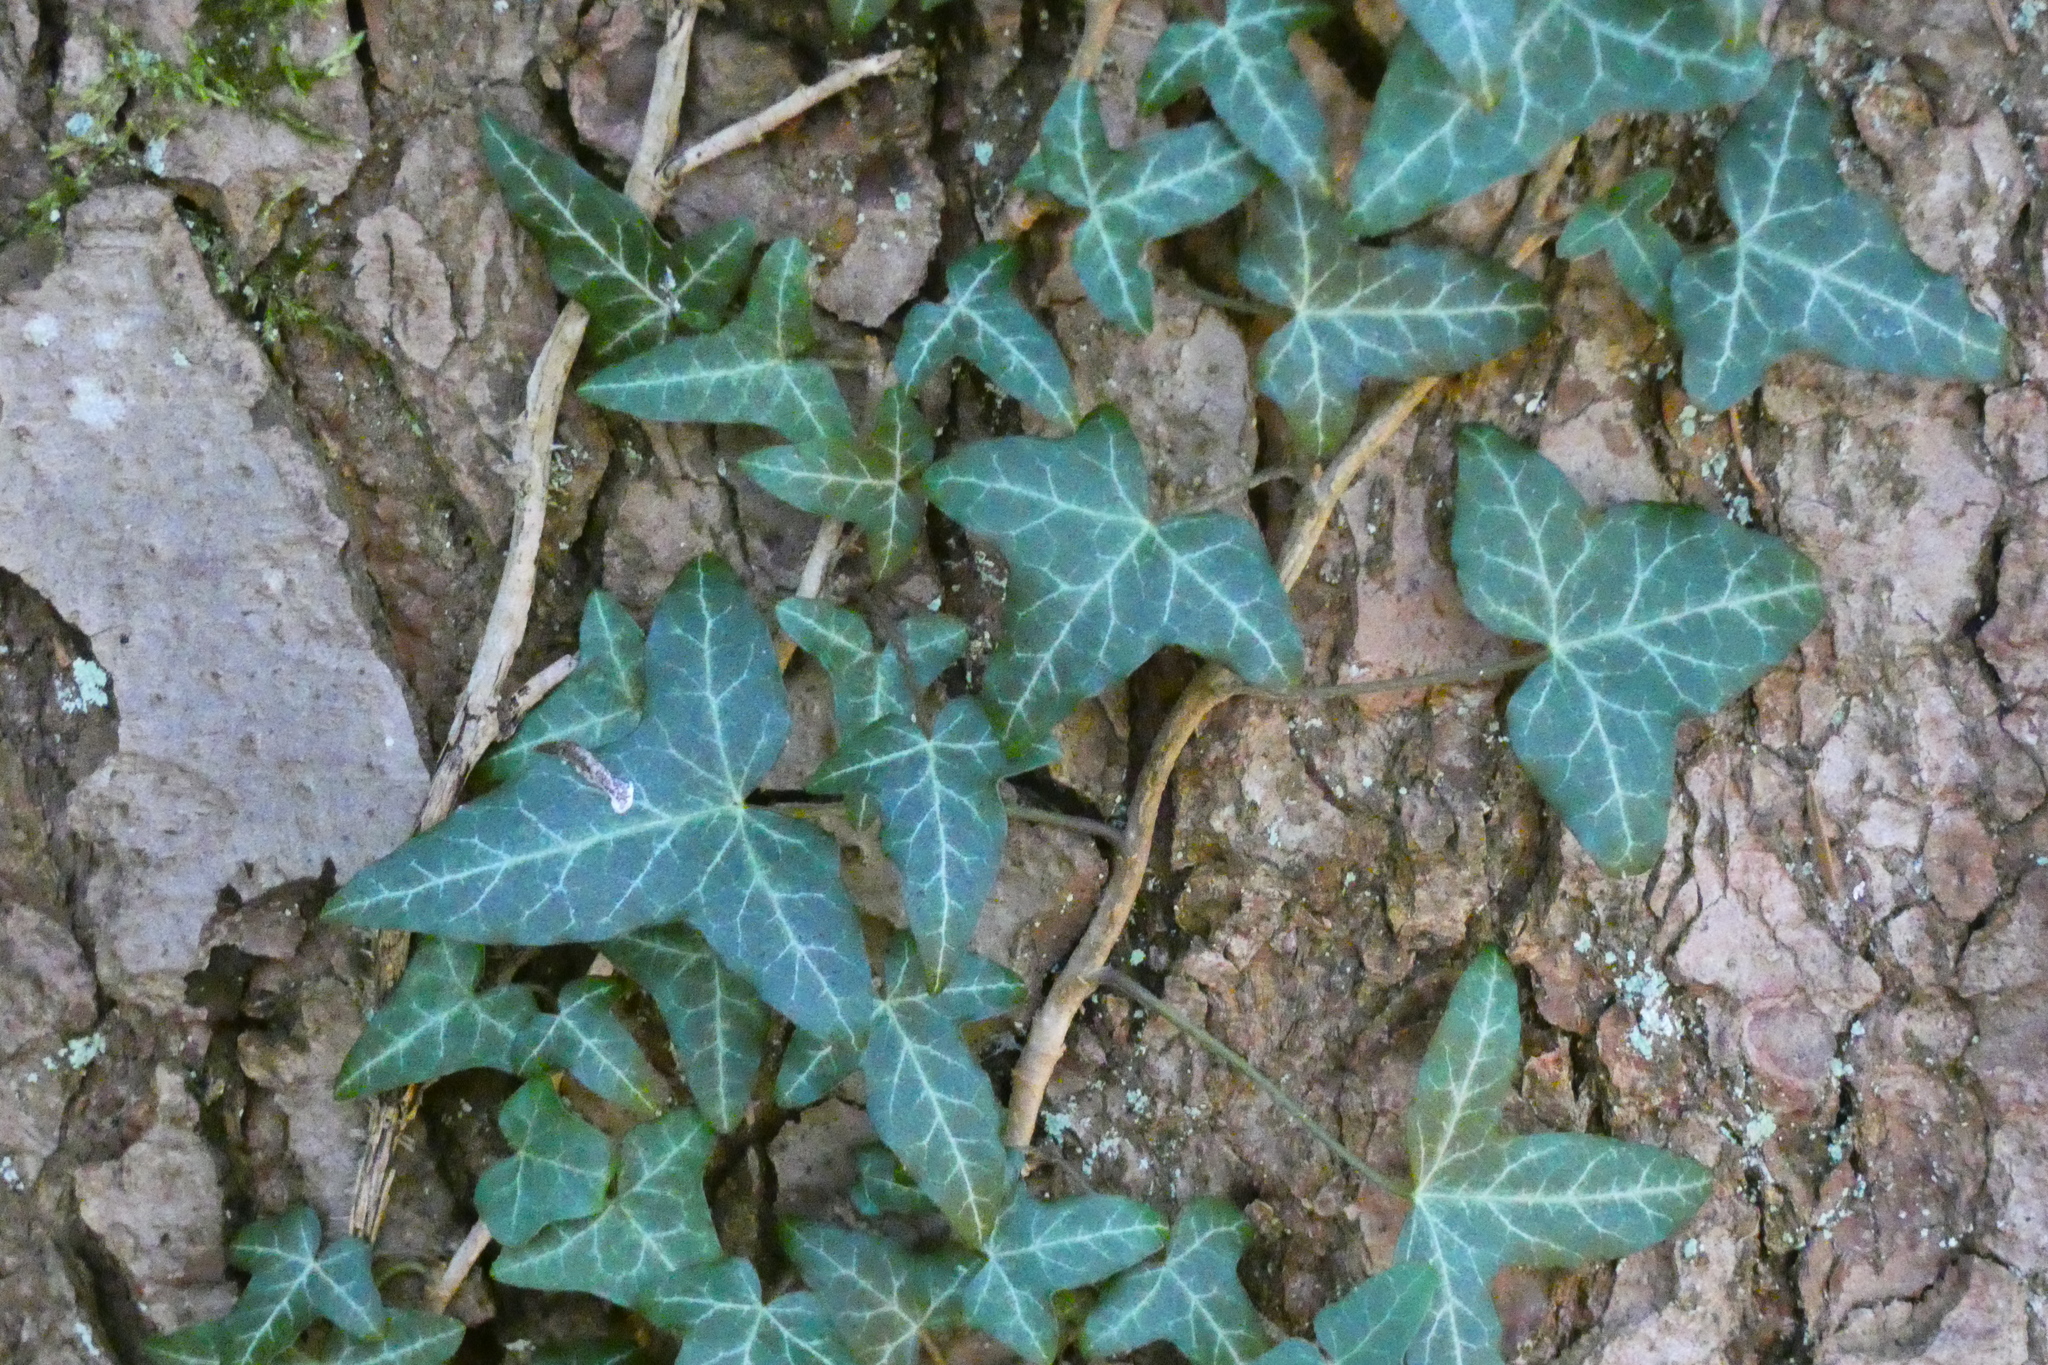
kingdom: Plantae
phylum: Tracheophyta
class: Magnoliopsida
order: Apiales
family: Araliaceae
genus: Hedera
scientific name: Hedera helix
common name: Ivy
